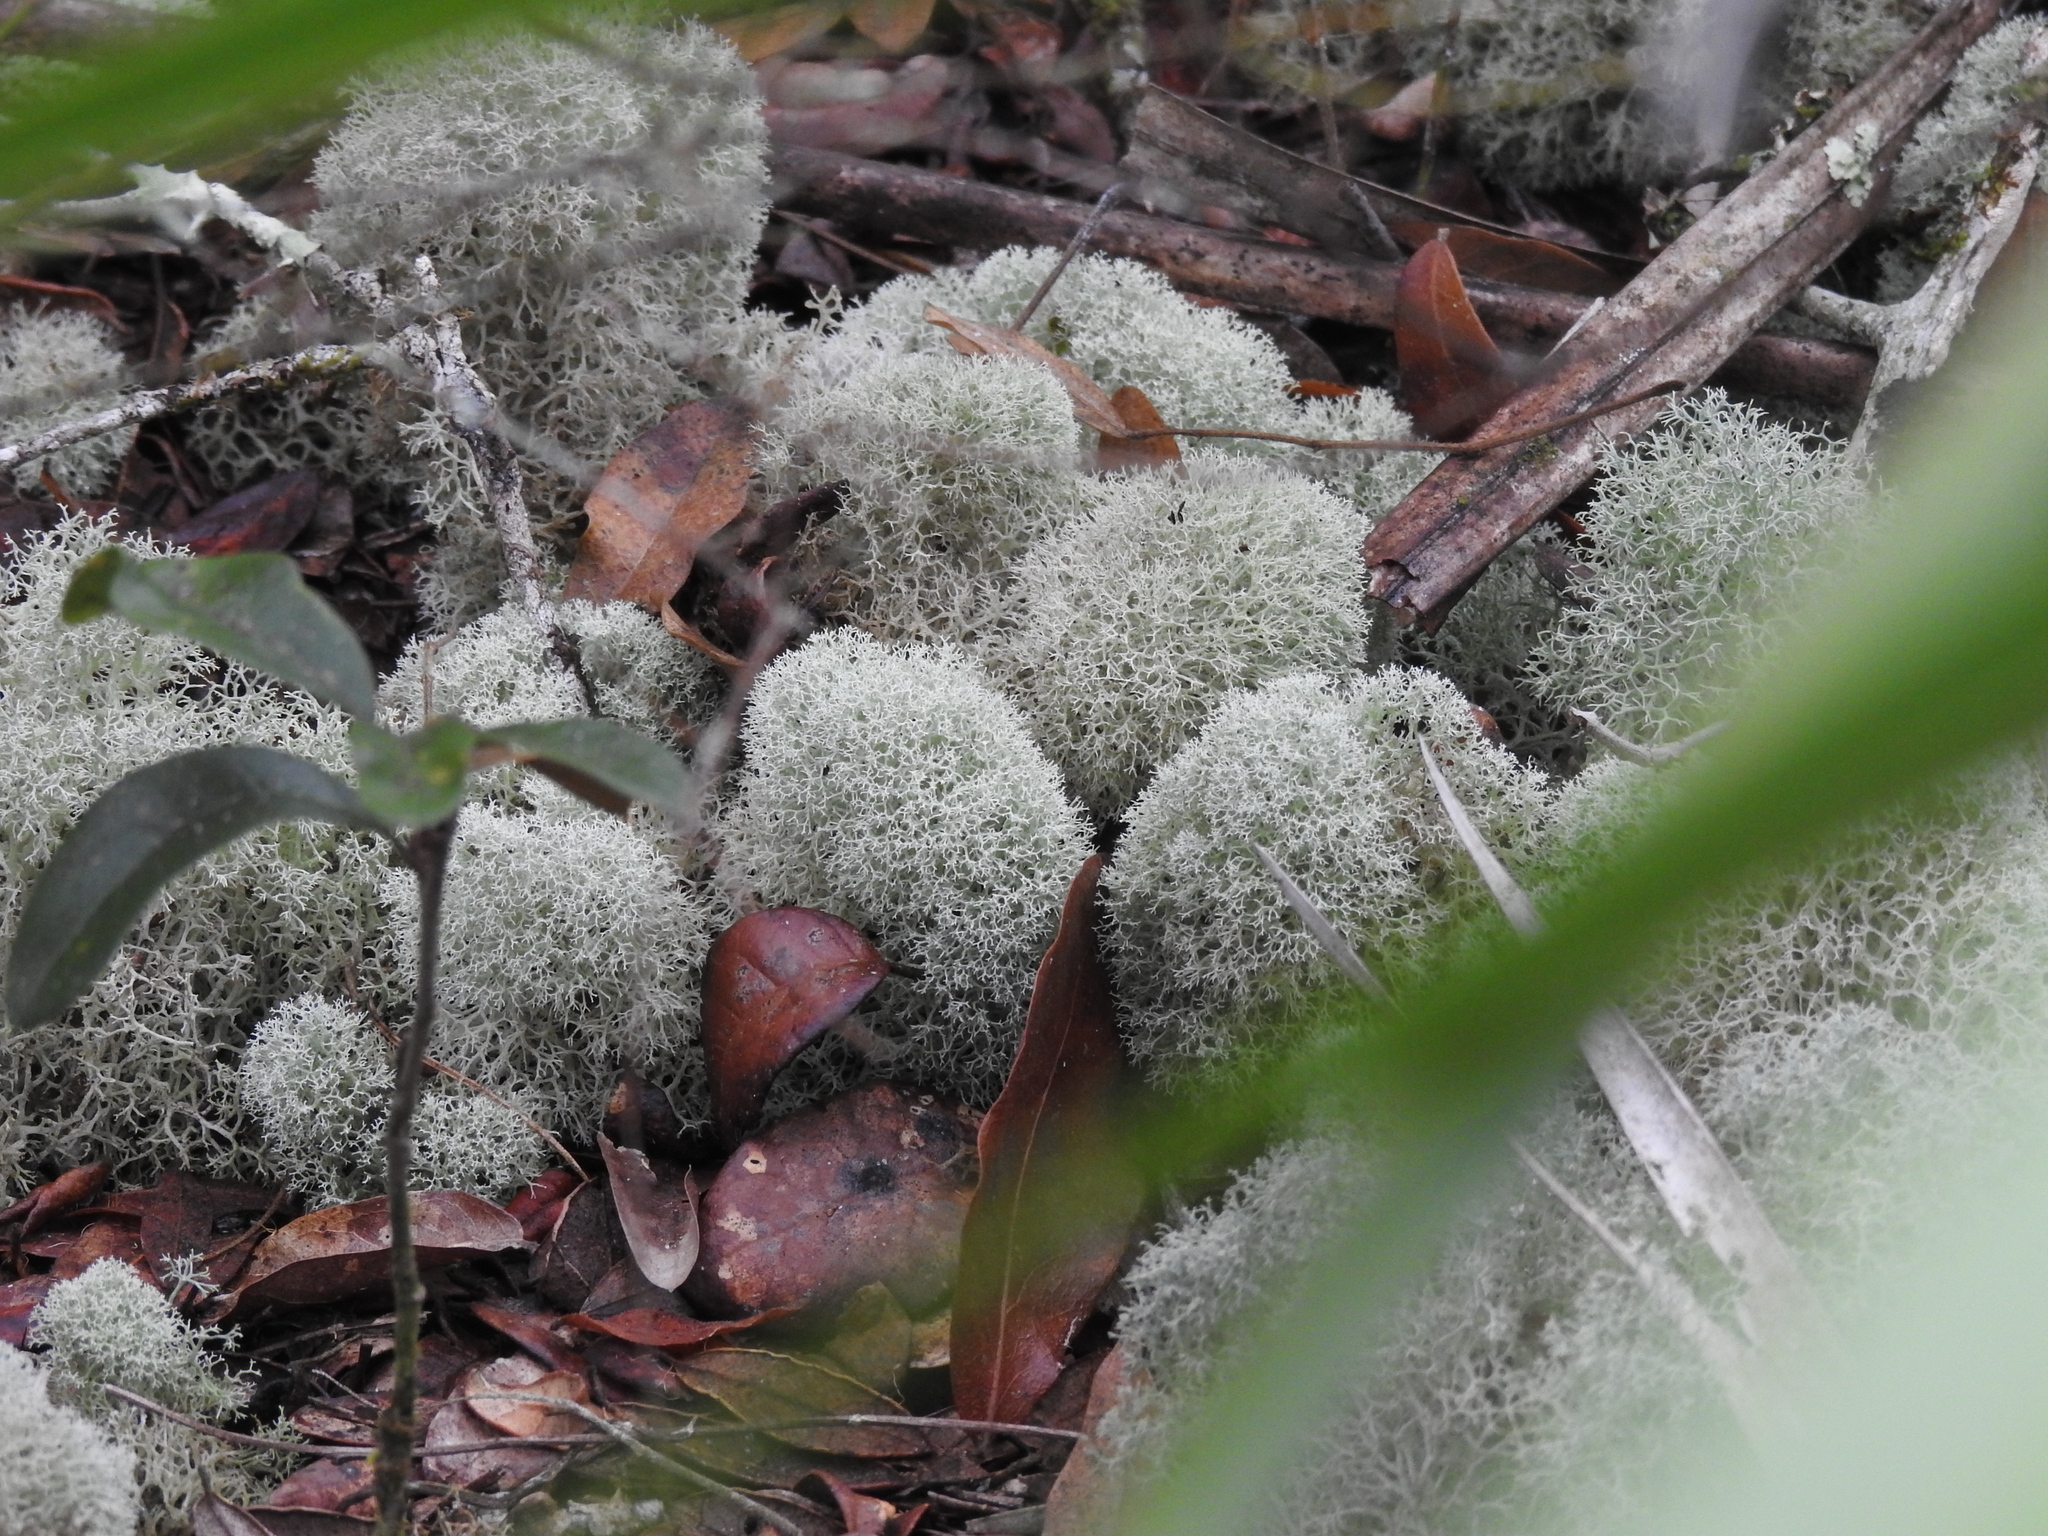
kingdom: Fungi
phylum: Ascomycota
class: Lecanoromycetes
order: Lecanorales
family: Cladoniaceae
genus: Cladonia
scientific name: Cladonia evansii
